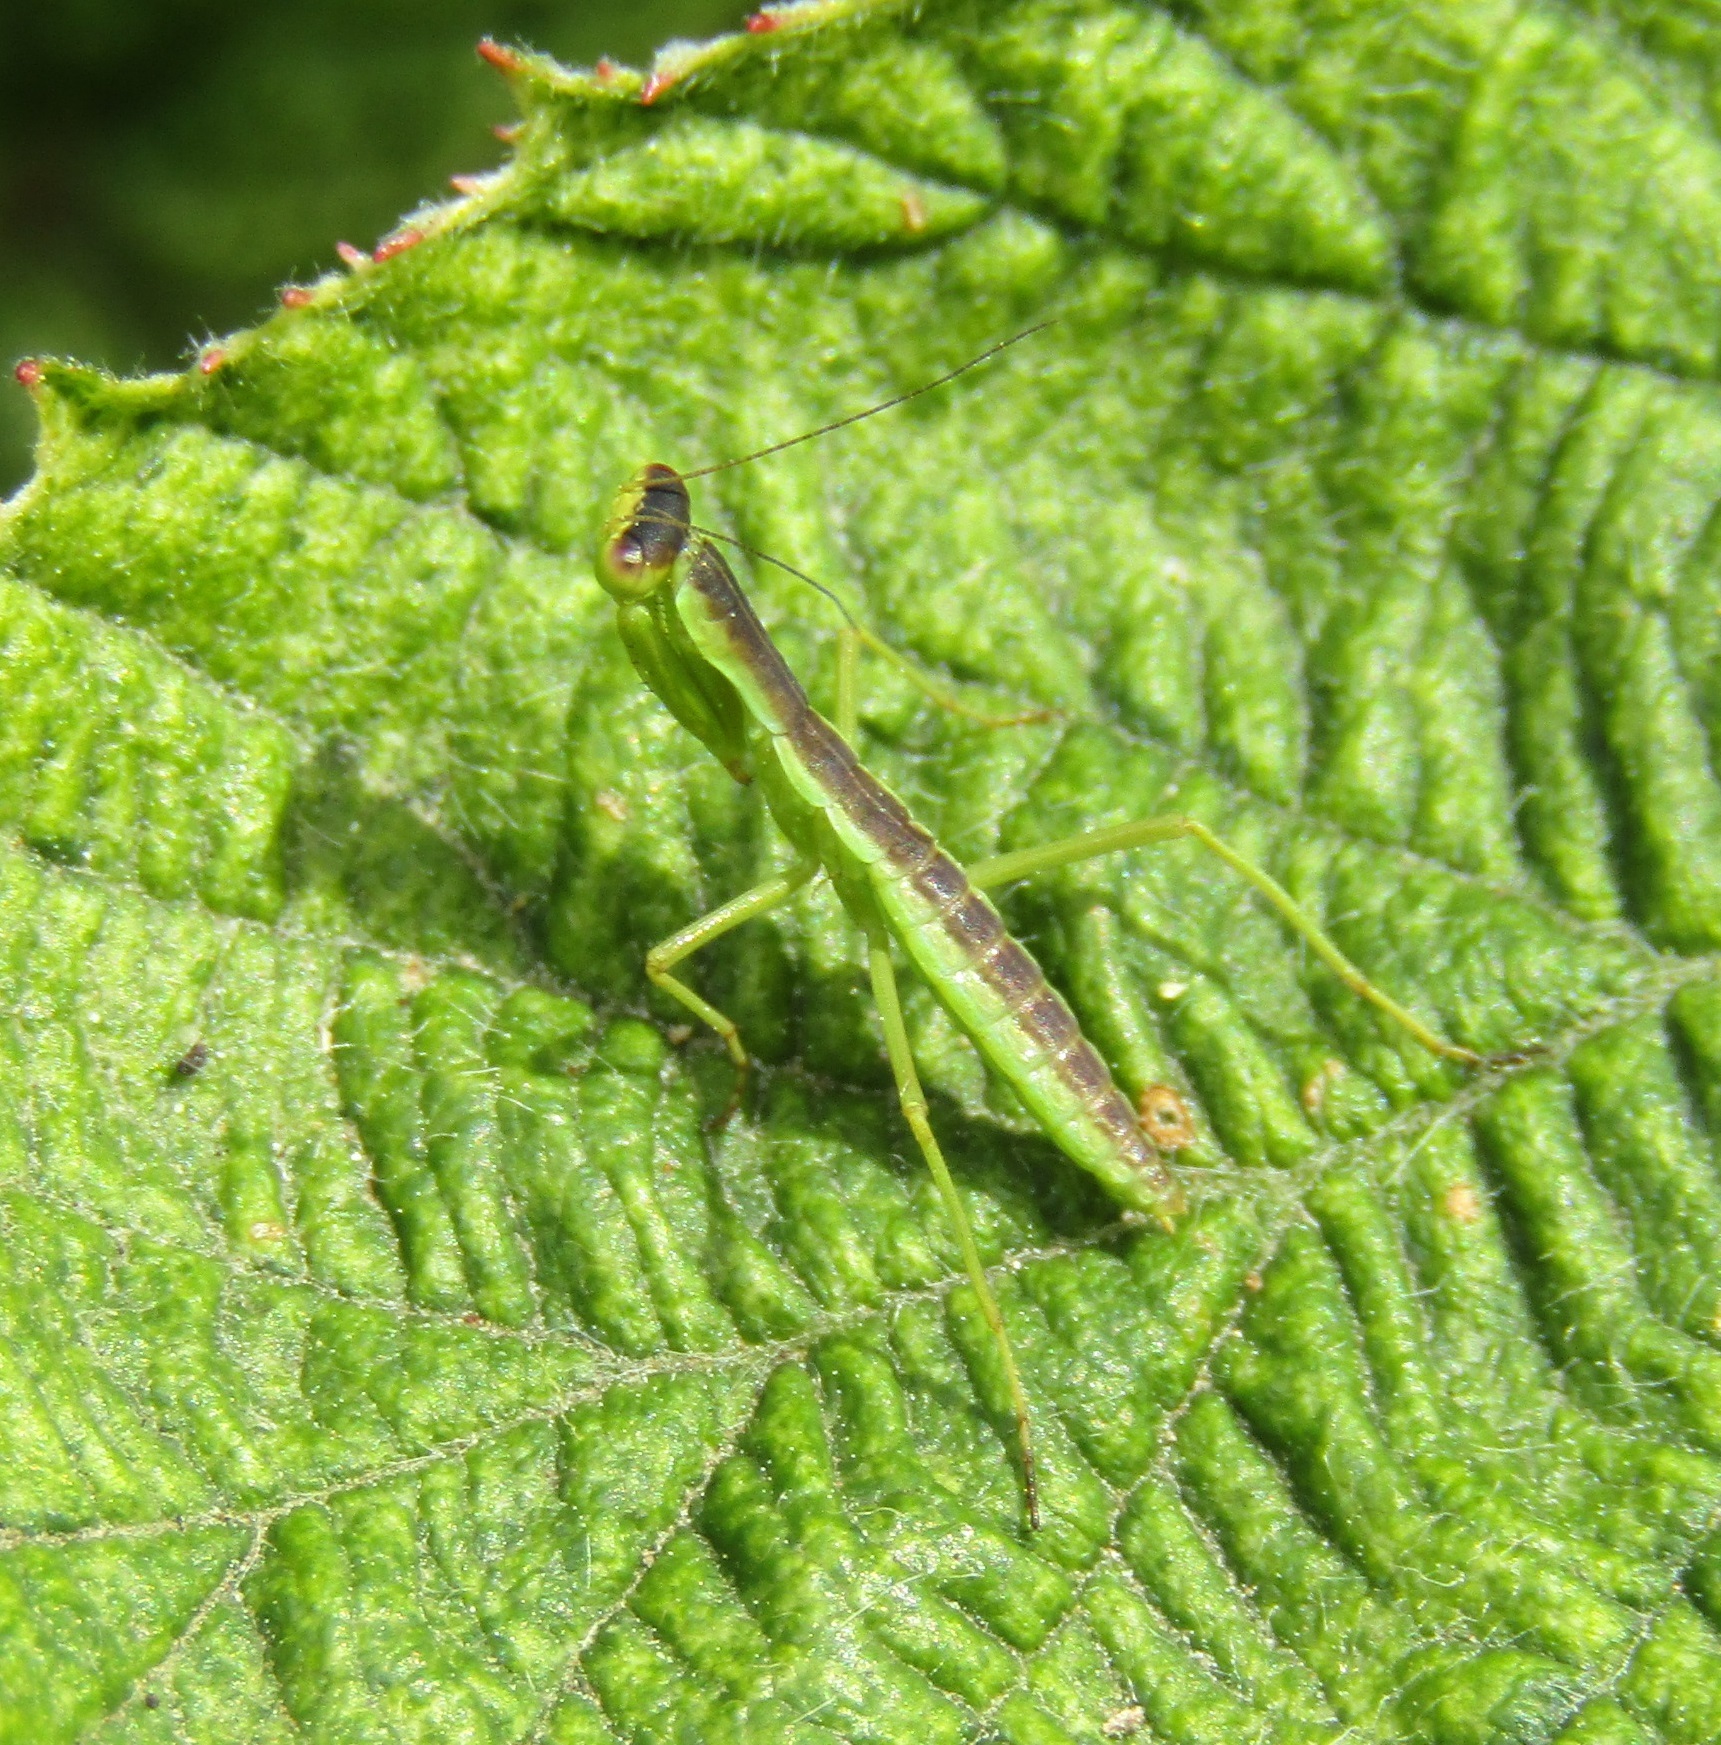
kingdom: Animalia
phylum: Arthropoda
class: Insecta
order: Mantodea
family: Mantidae
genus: Orthodera
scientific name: Orthodera novaezealandiae
